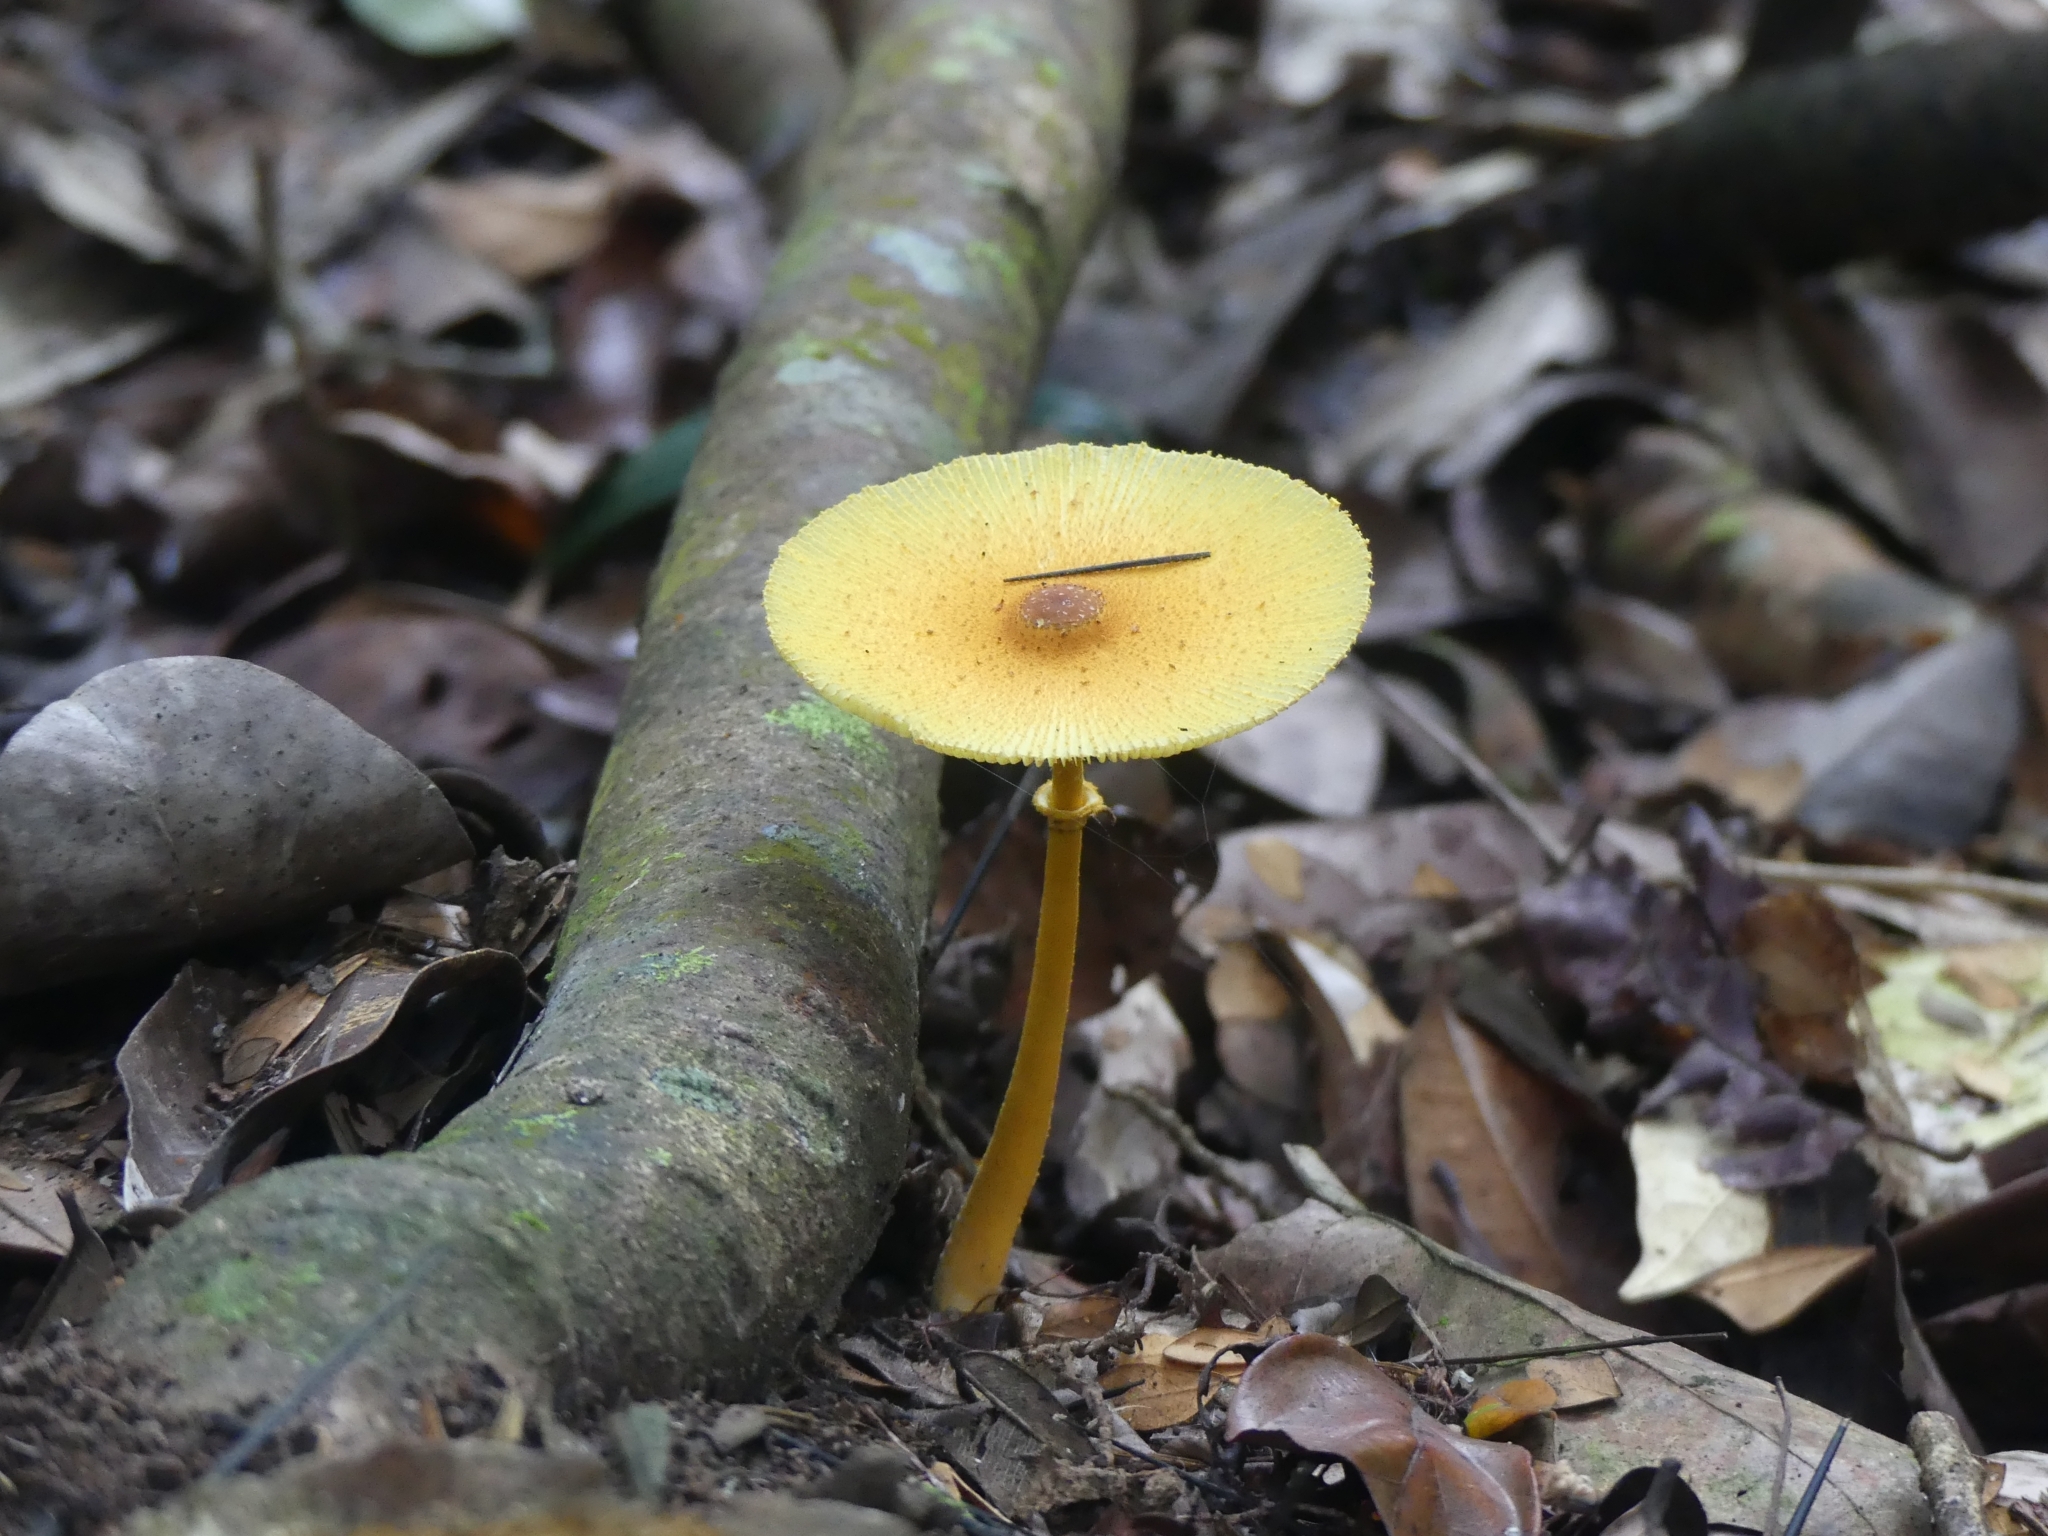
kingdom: Fungi
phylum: Basidiomycota
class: Agaricomycetes
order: Agaricales
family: Agaricaceae
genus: Leucocoprinus
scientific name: Leucocoprinus brunneoluteus
